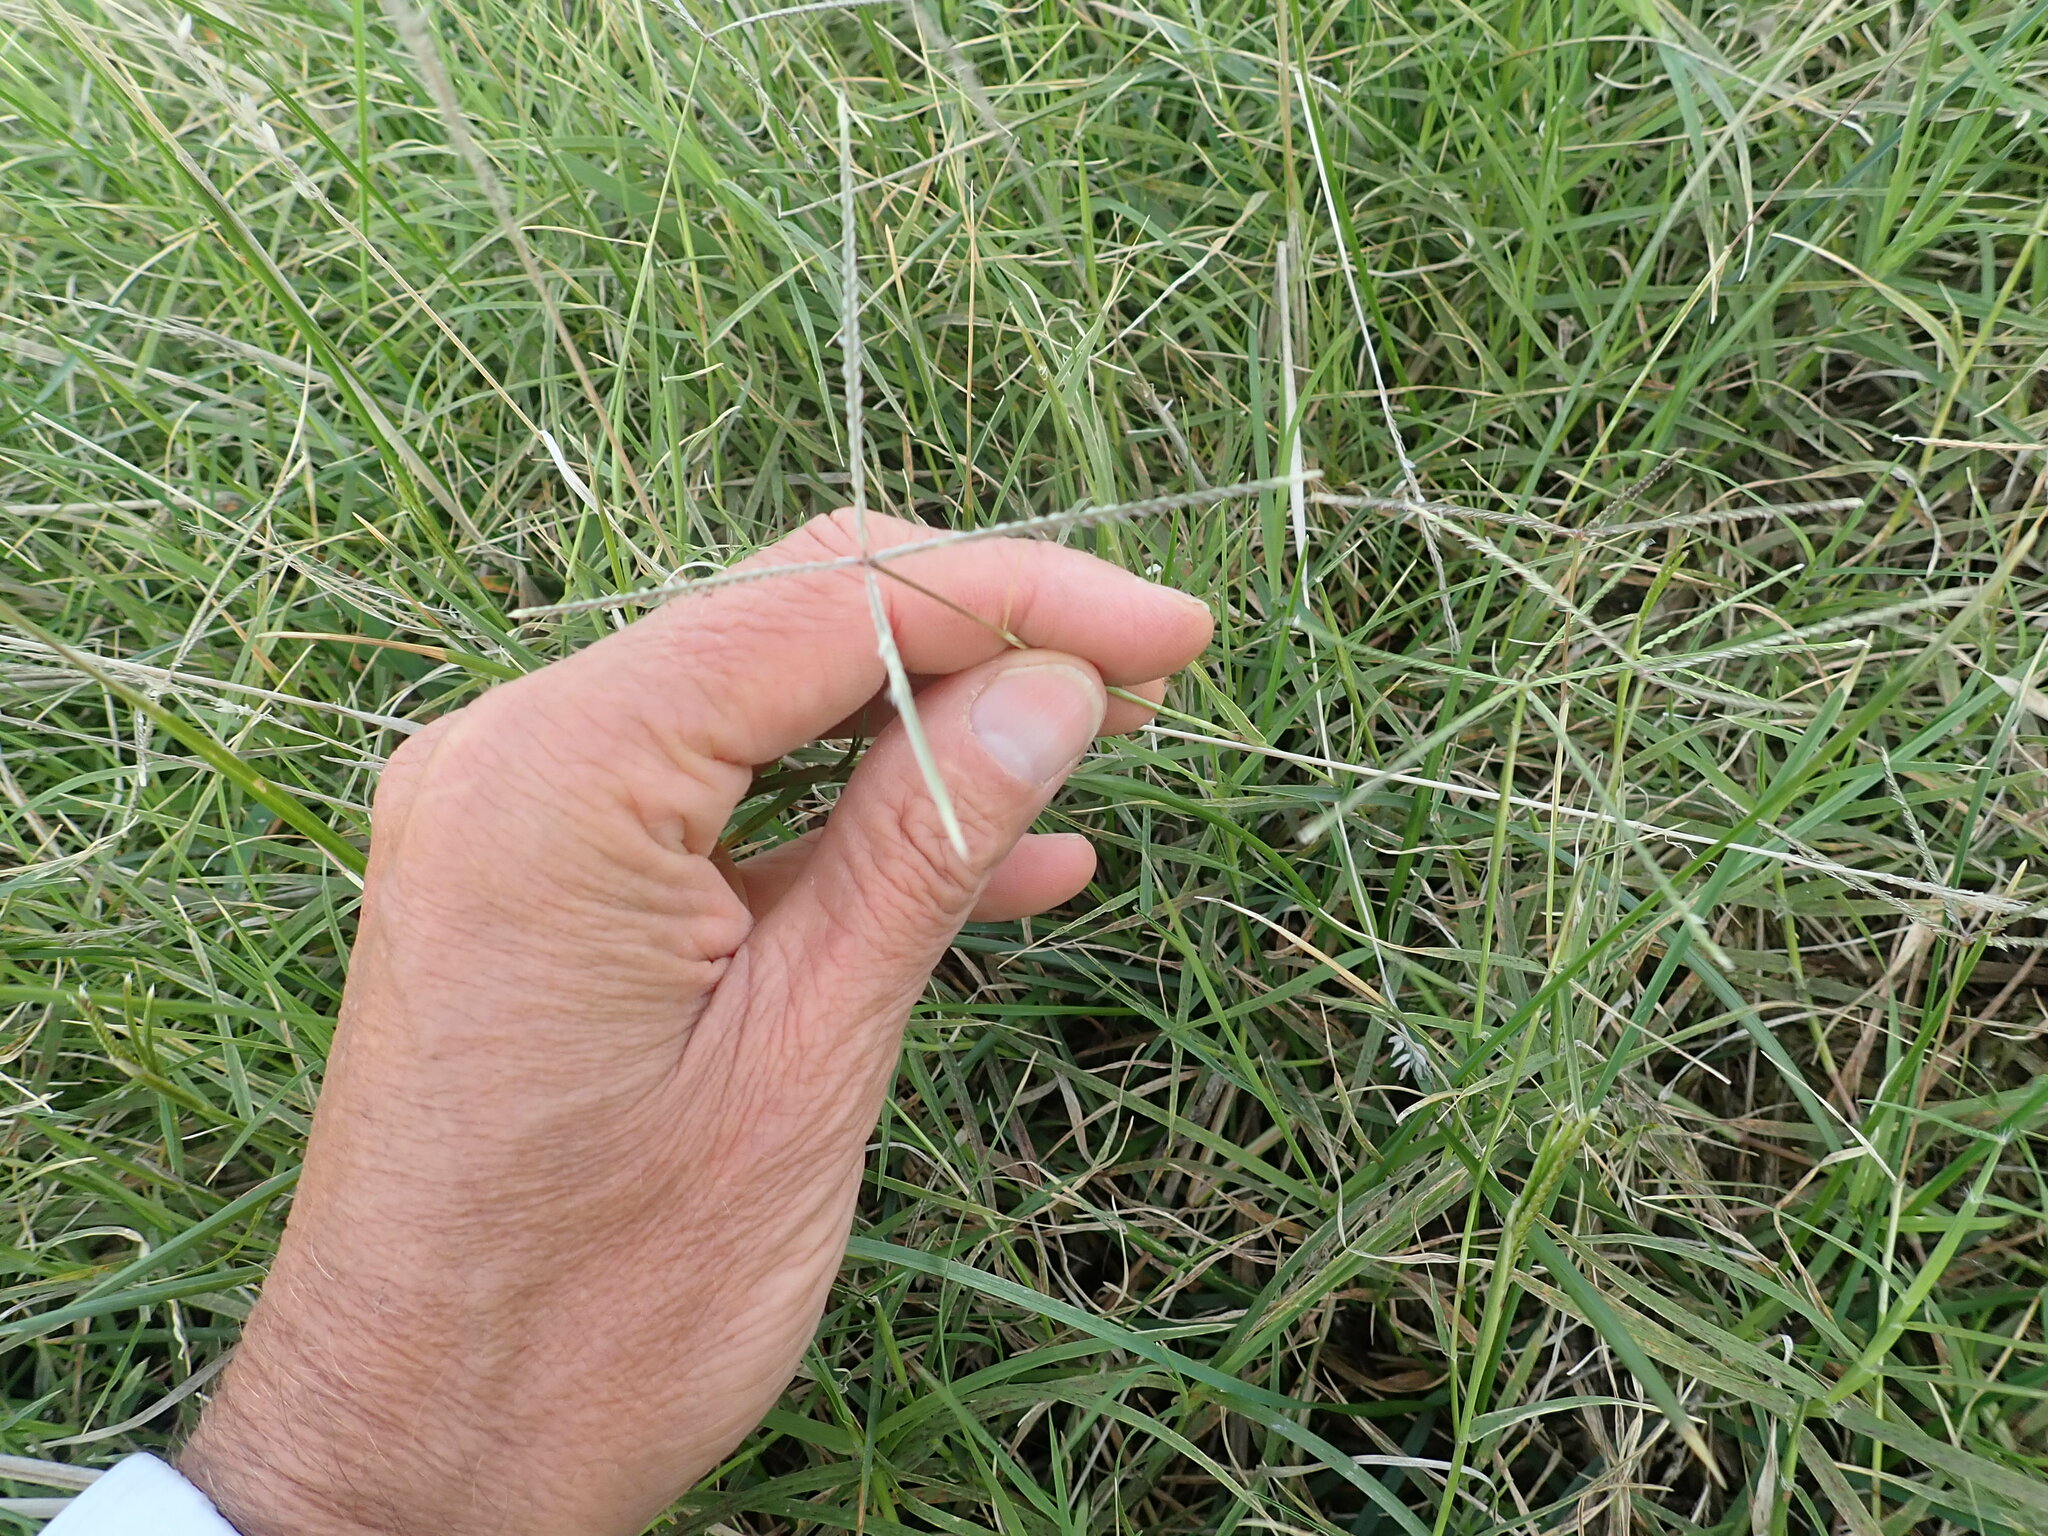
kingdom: Plantae
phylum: Tracheophyta
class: Liliopsida
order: Poales
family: Poaceae
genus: Paspalum
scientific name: Paspalum vaginatum
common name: Seashore paspalum
